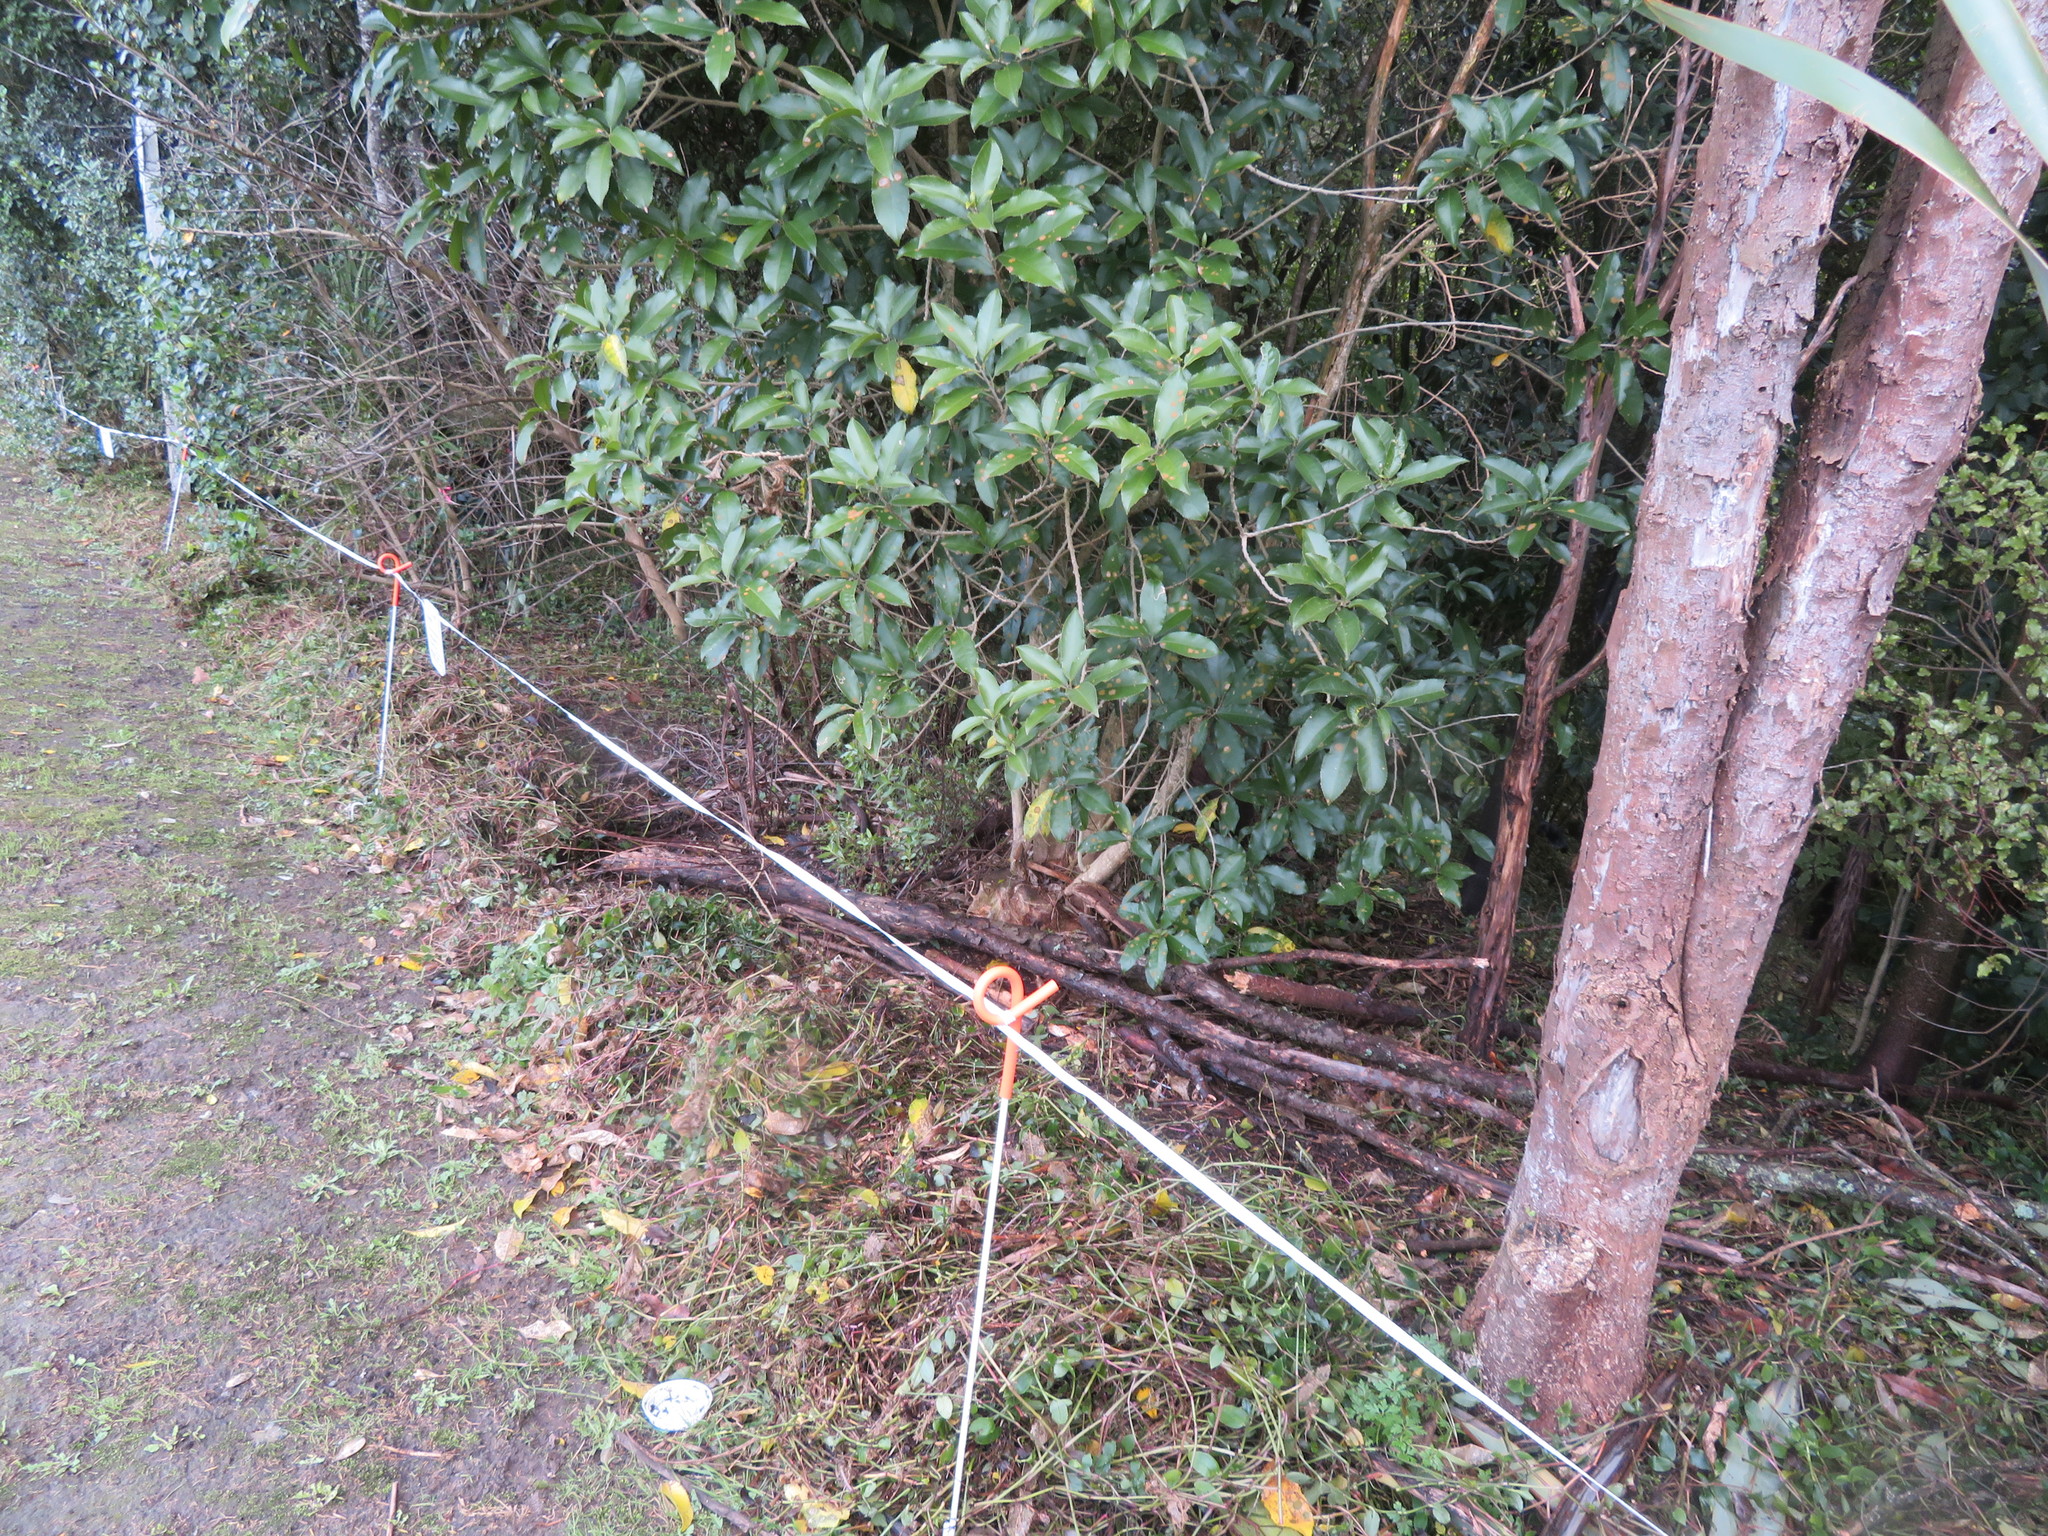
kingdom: Plantae
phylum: Tracheophyta
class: Liliopsida
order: Commelinales
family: Commelinaceae
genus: Tradescantia
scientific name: Tradescantia fluminensis
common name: Wandering-jew
